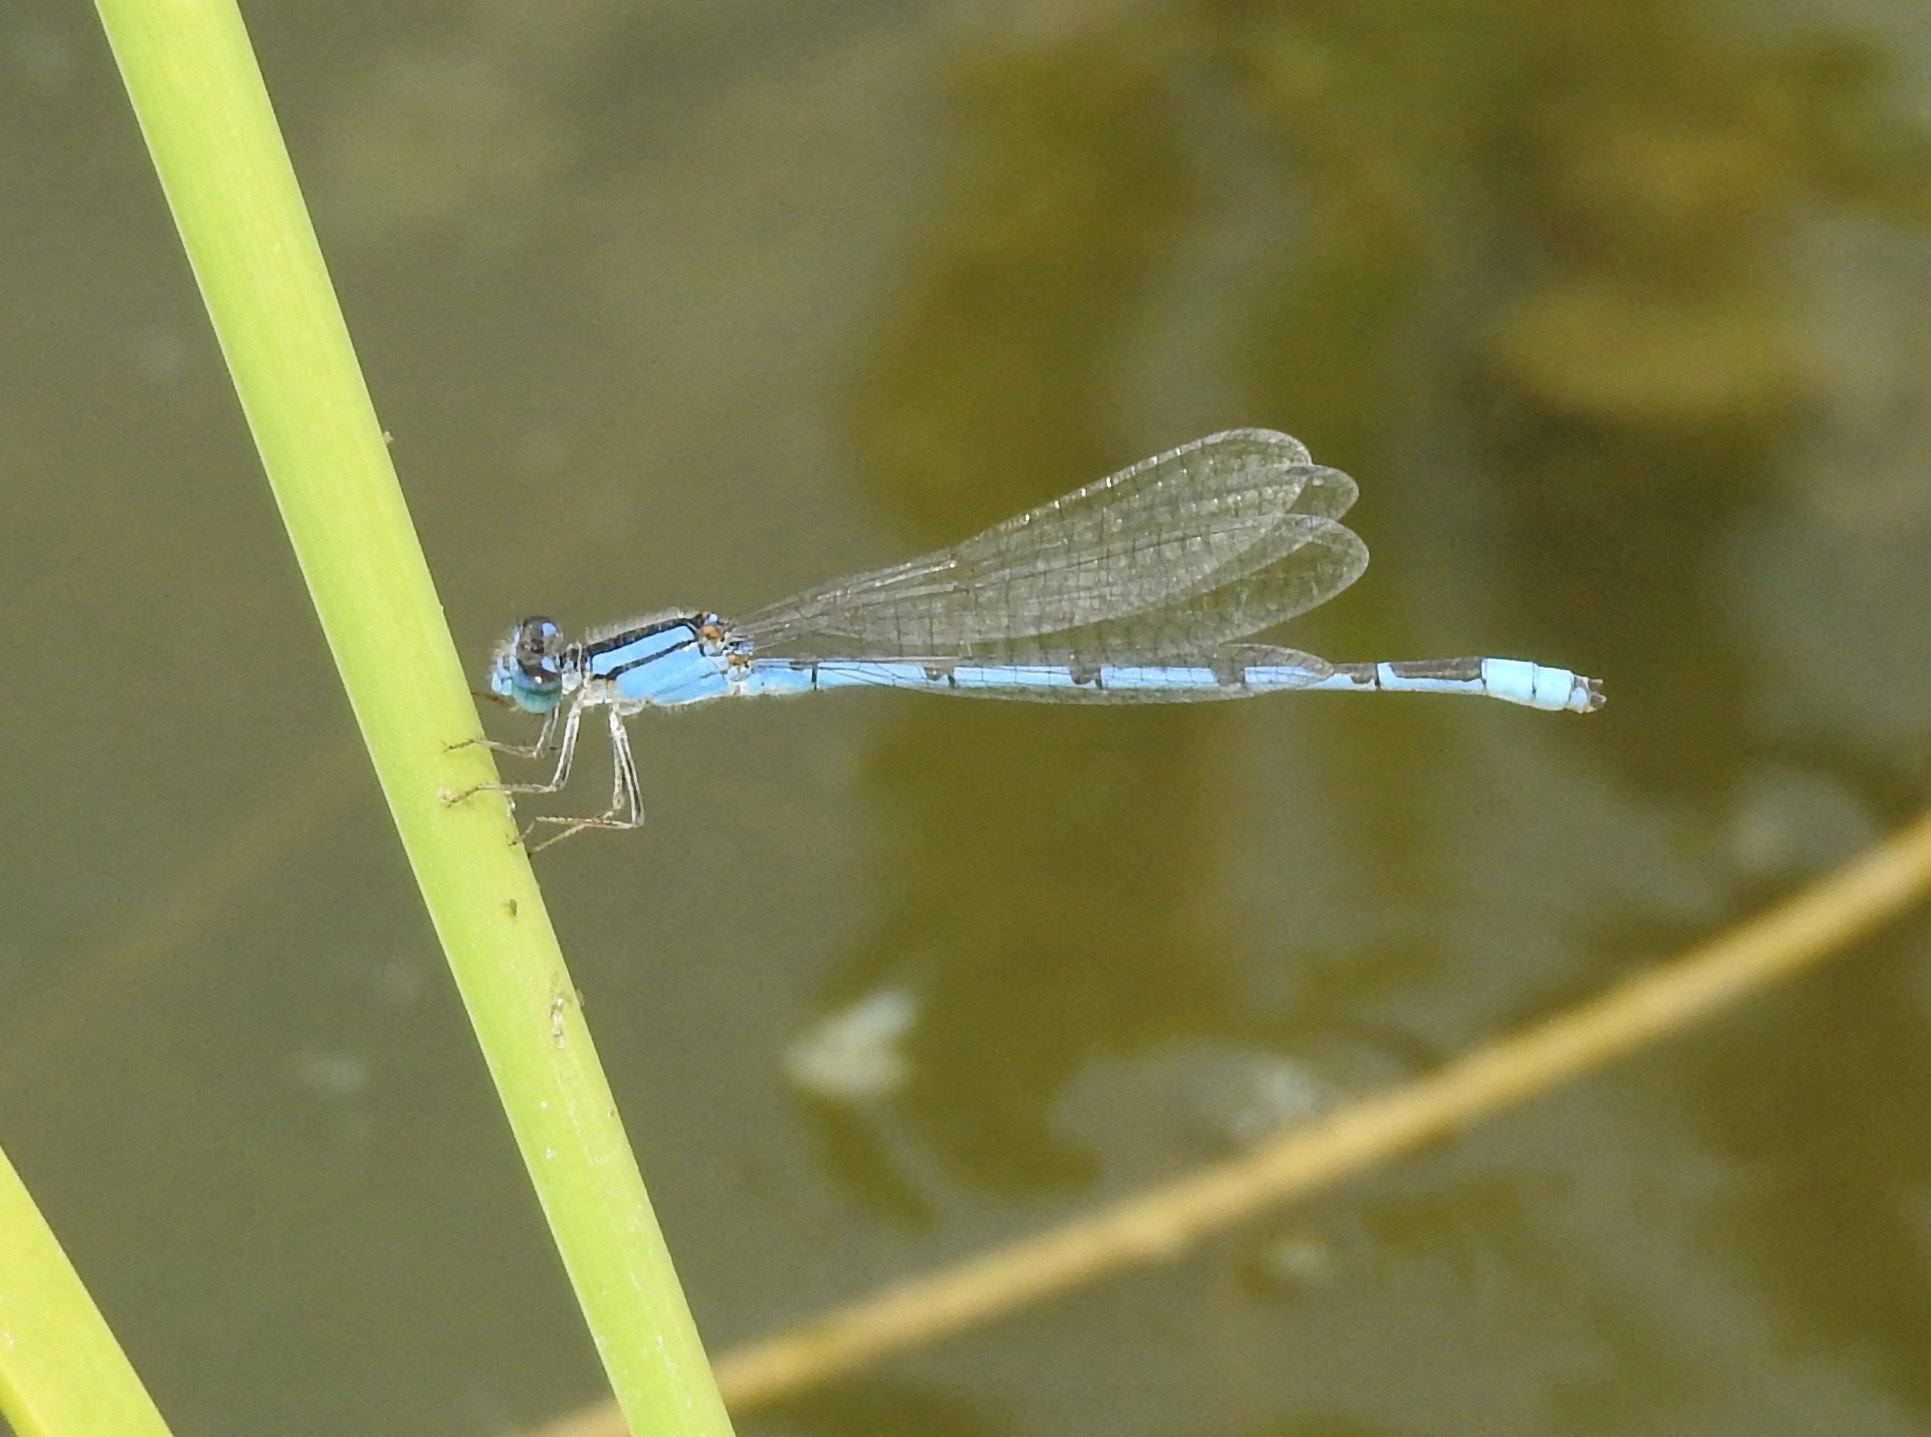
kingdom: Animalia
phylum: Arthropoda
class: Insecta
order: Odonata
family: Coenagrionidae
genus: Enallagma
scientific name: Enallagma civile
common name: Damselfly
